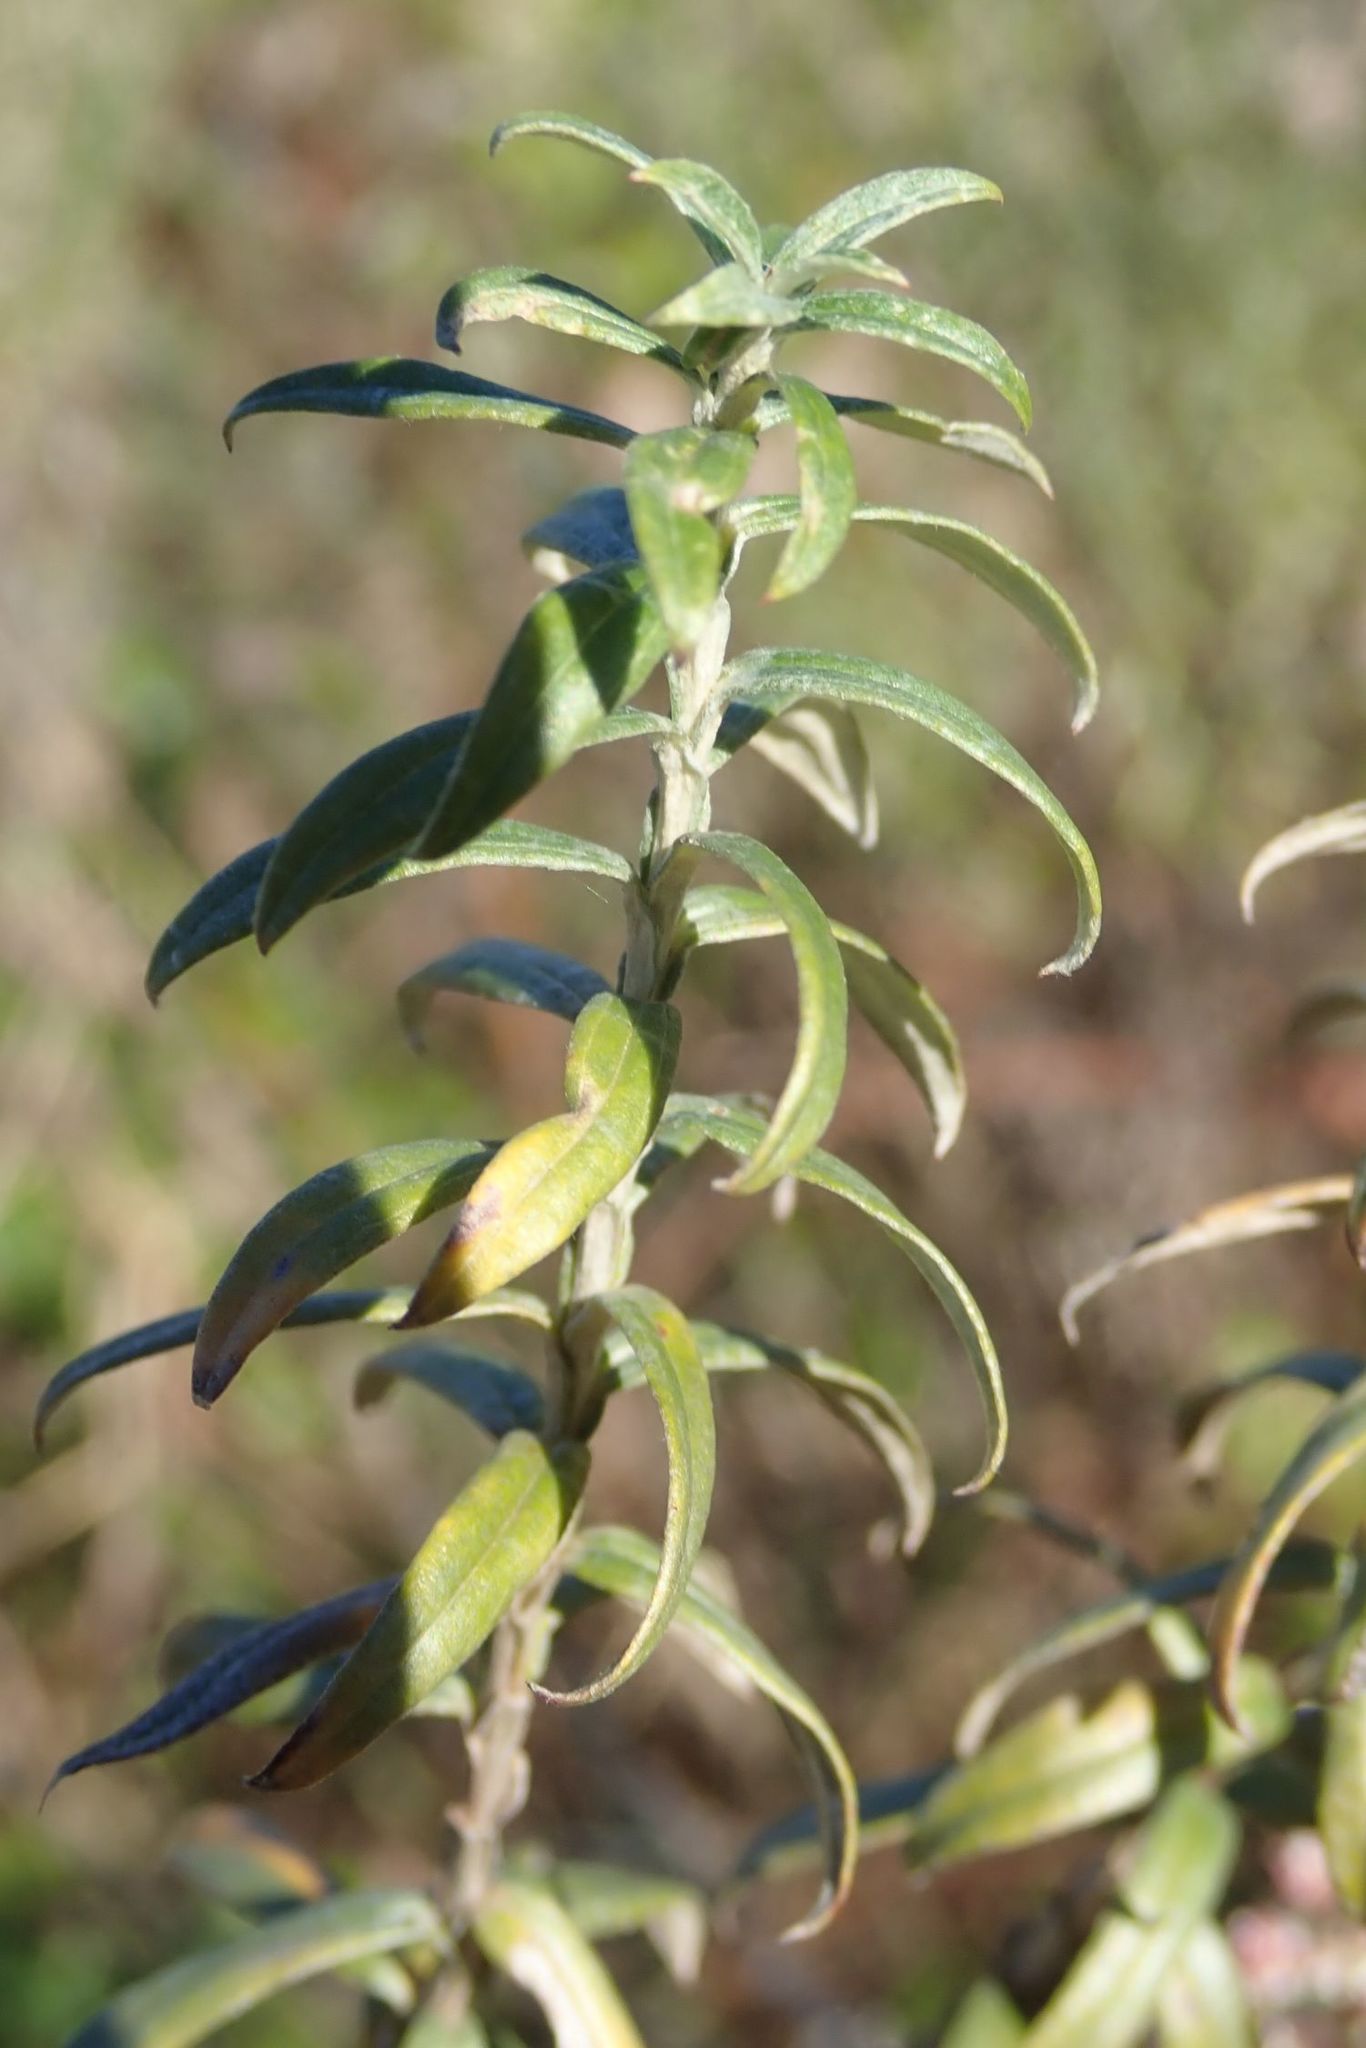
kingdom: Plantae
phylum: Tracheophyta
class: Magnoliopsida
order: Asterales
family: Asteraceae
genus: Tenrhynea
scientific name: Tenrhynea phylicifolia
